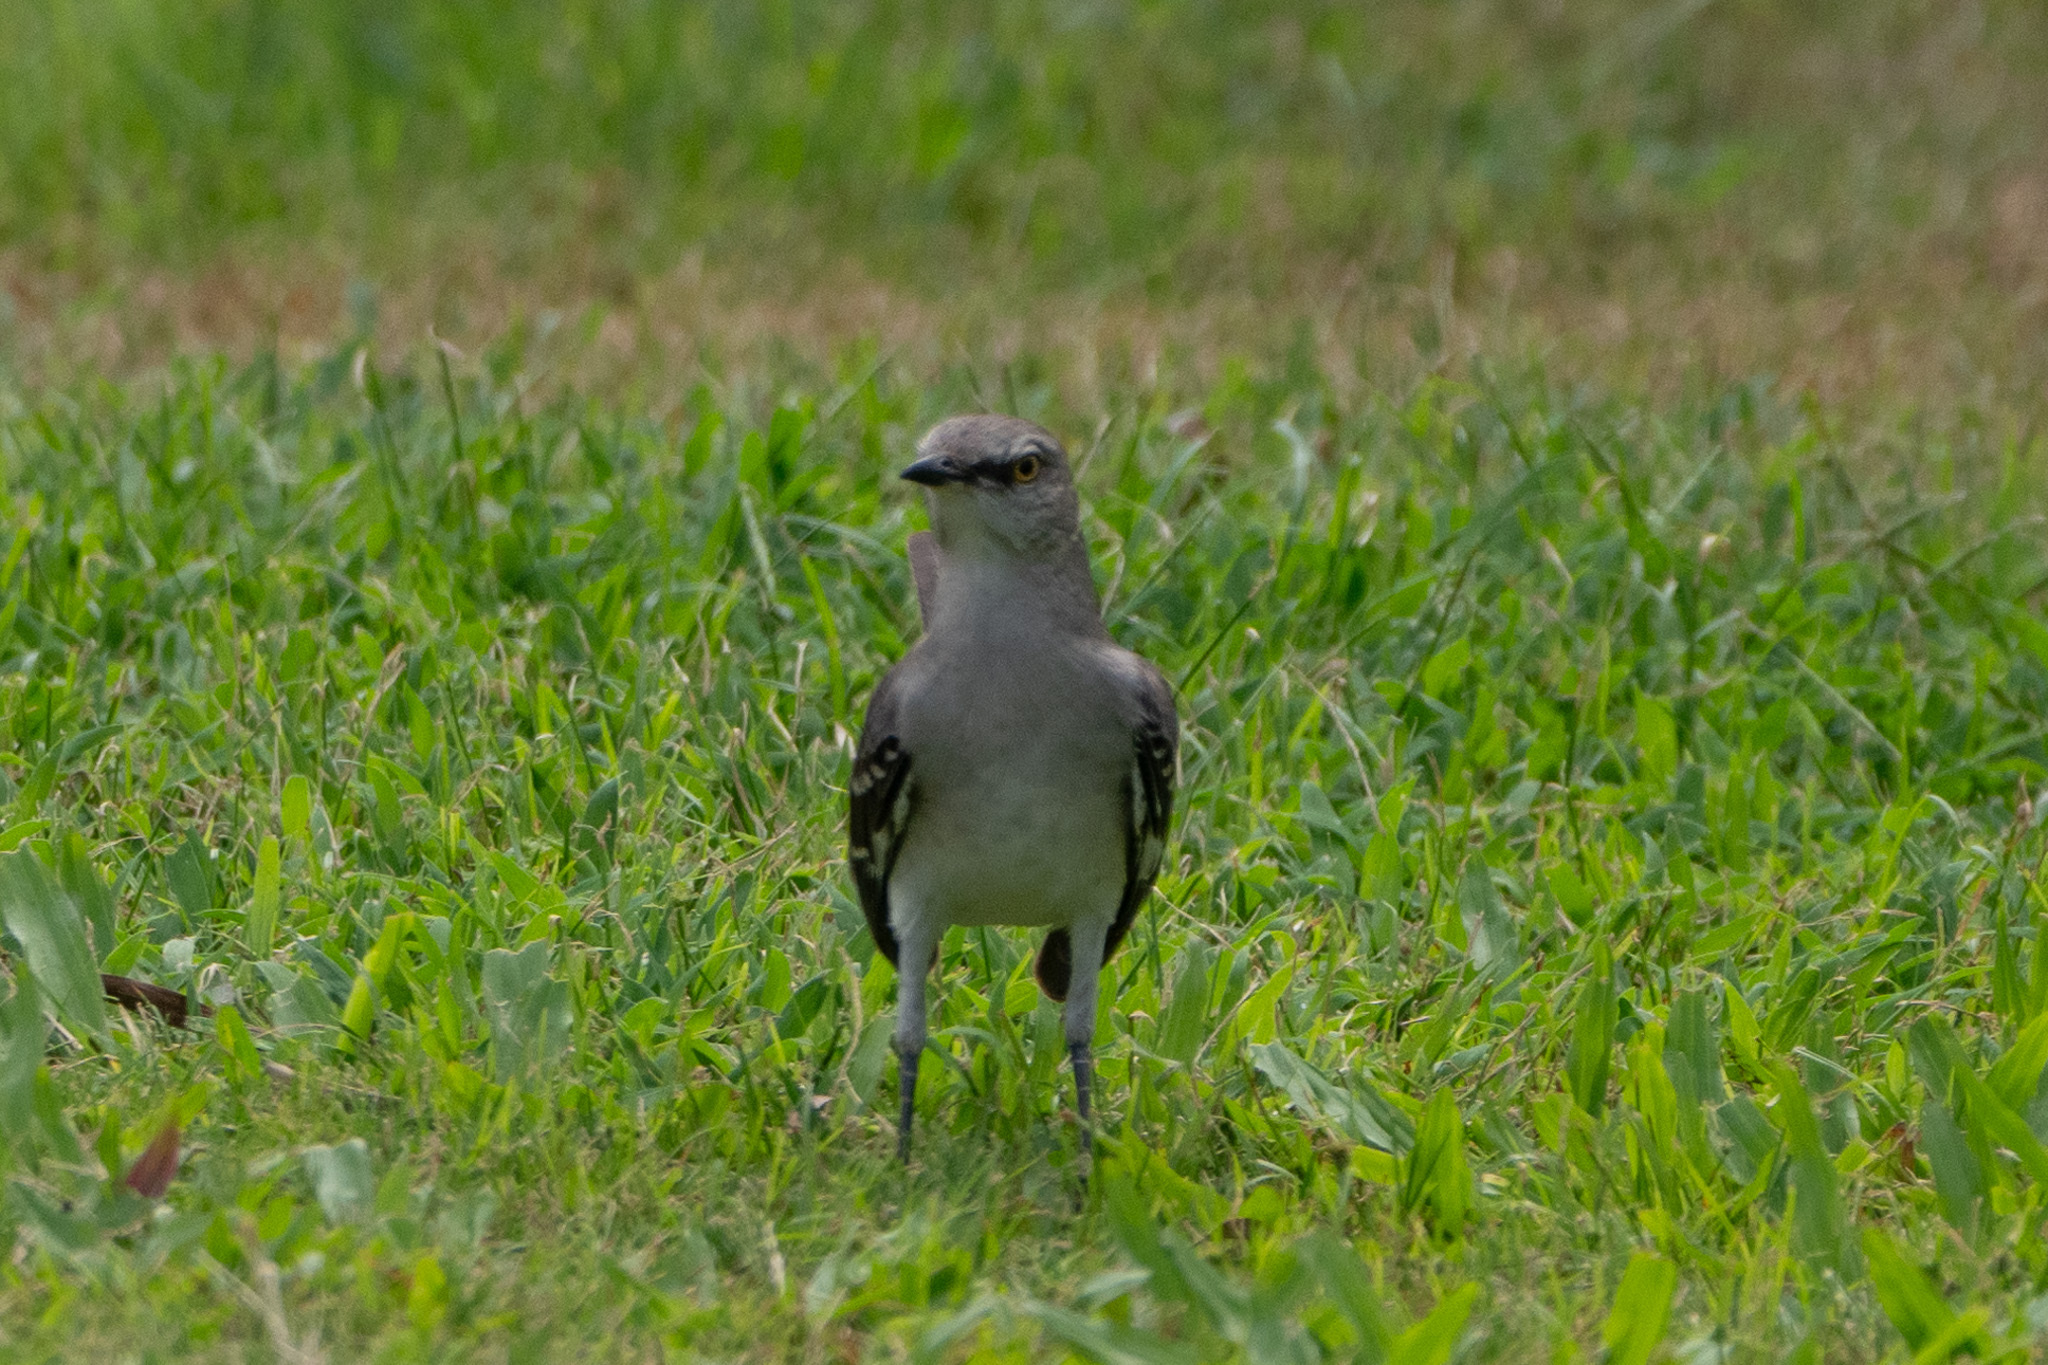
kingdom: Animalia
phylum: Chordata
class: Aves
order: Passeriformes
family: Mimidae
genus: Mimus
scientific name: Mimus polyglottos
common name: Northern mockingbird
